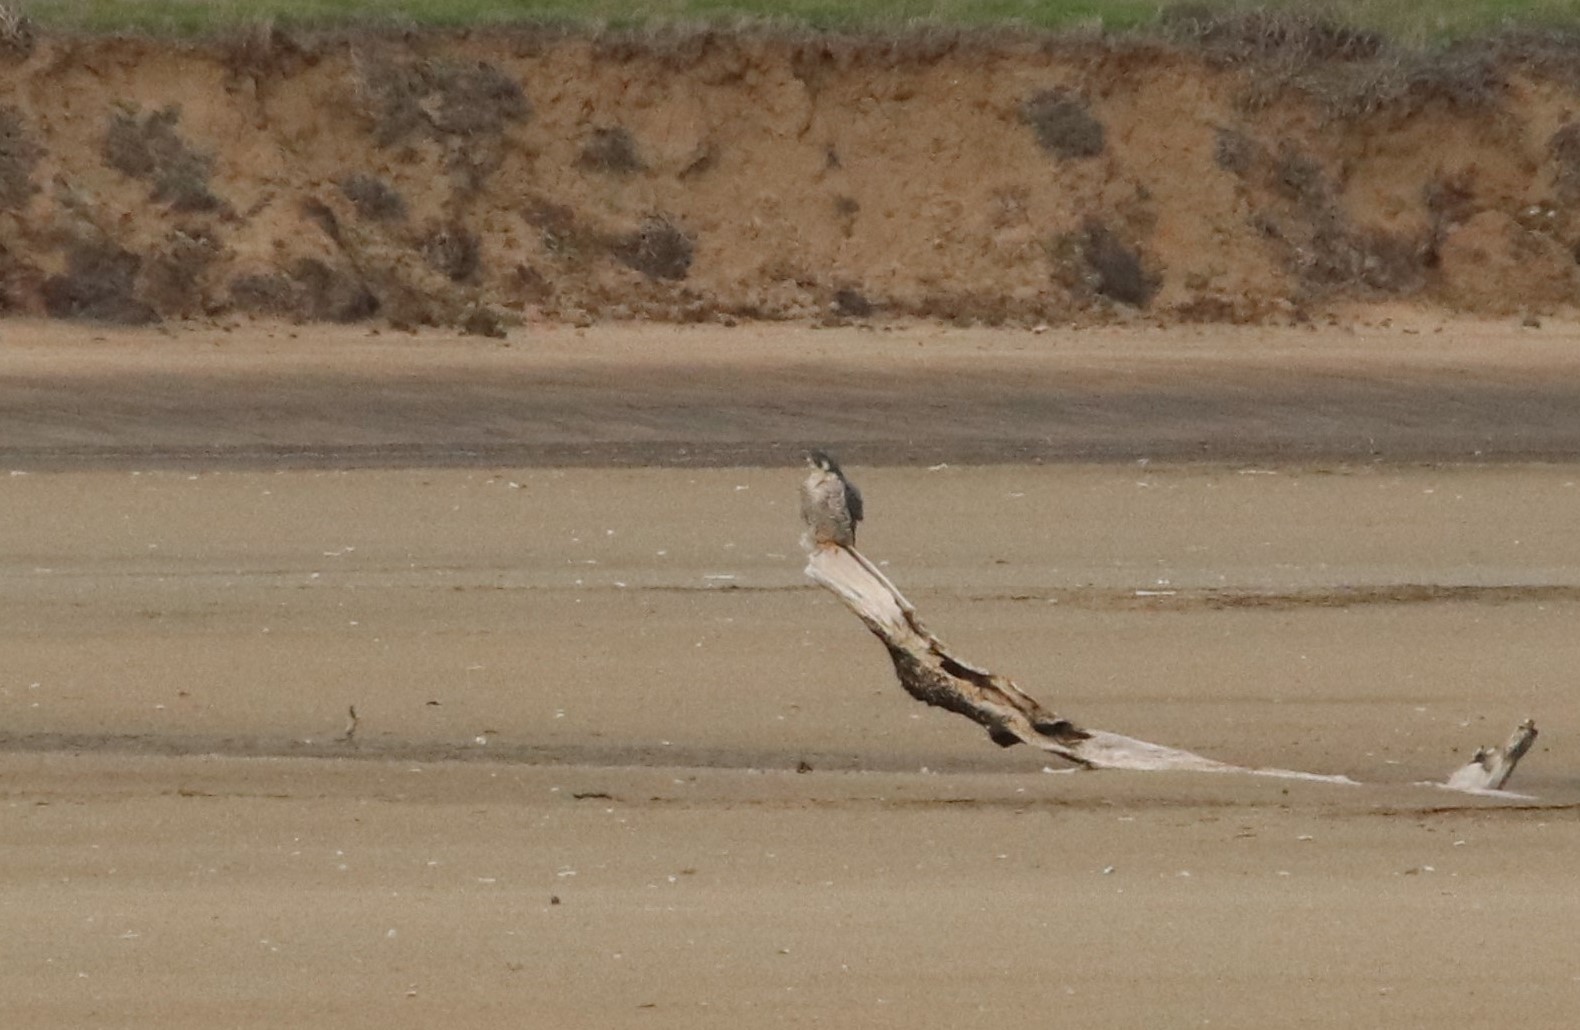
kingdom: Animalia
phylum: Chordata
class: Aves
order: Falconiformes
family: Falconidae
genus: Falco
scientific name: Falco peregrinus
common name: Peregrine falcon
